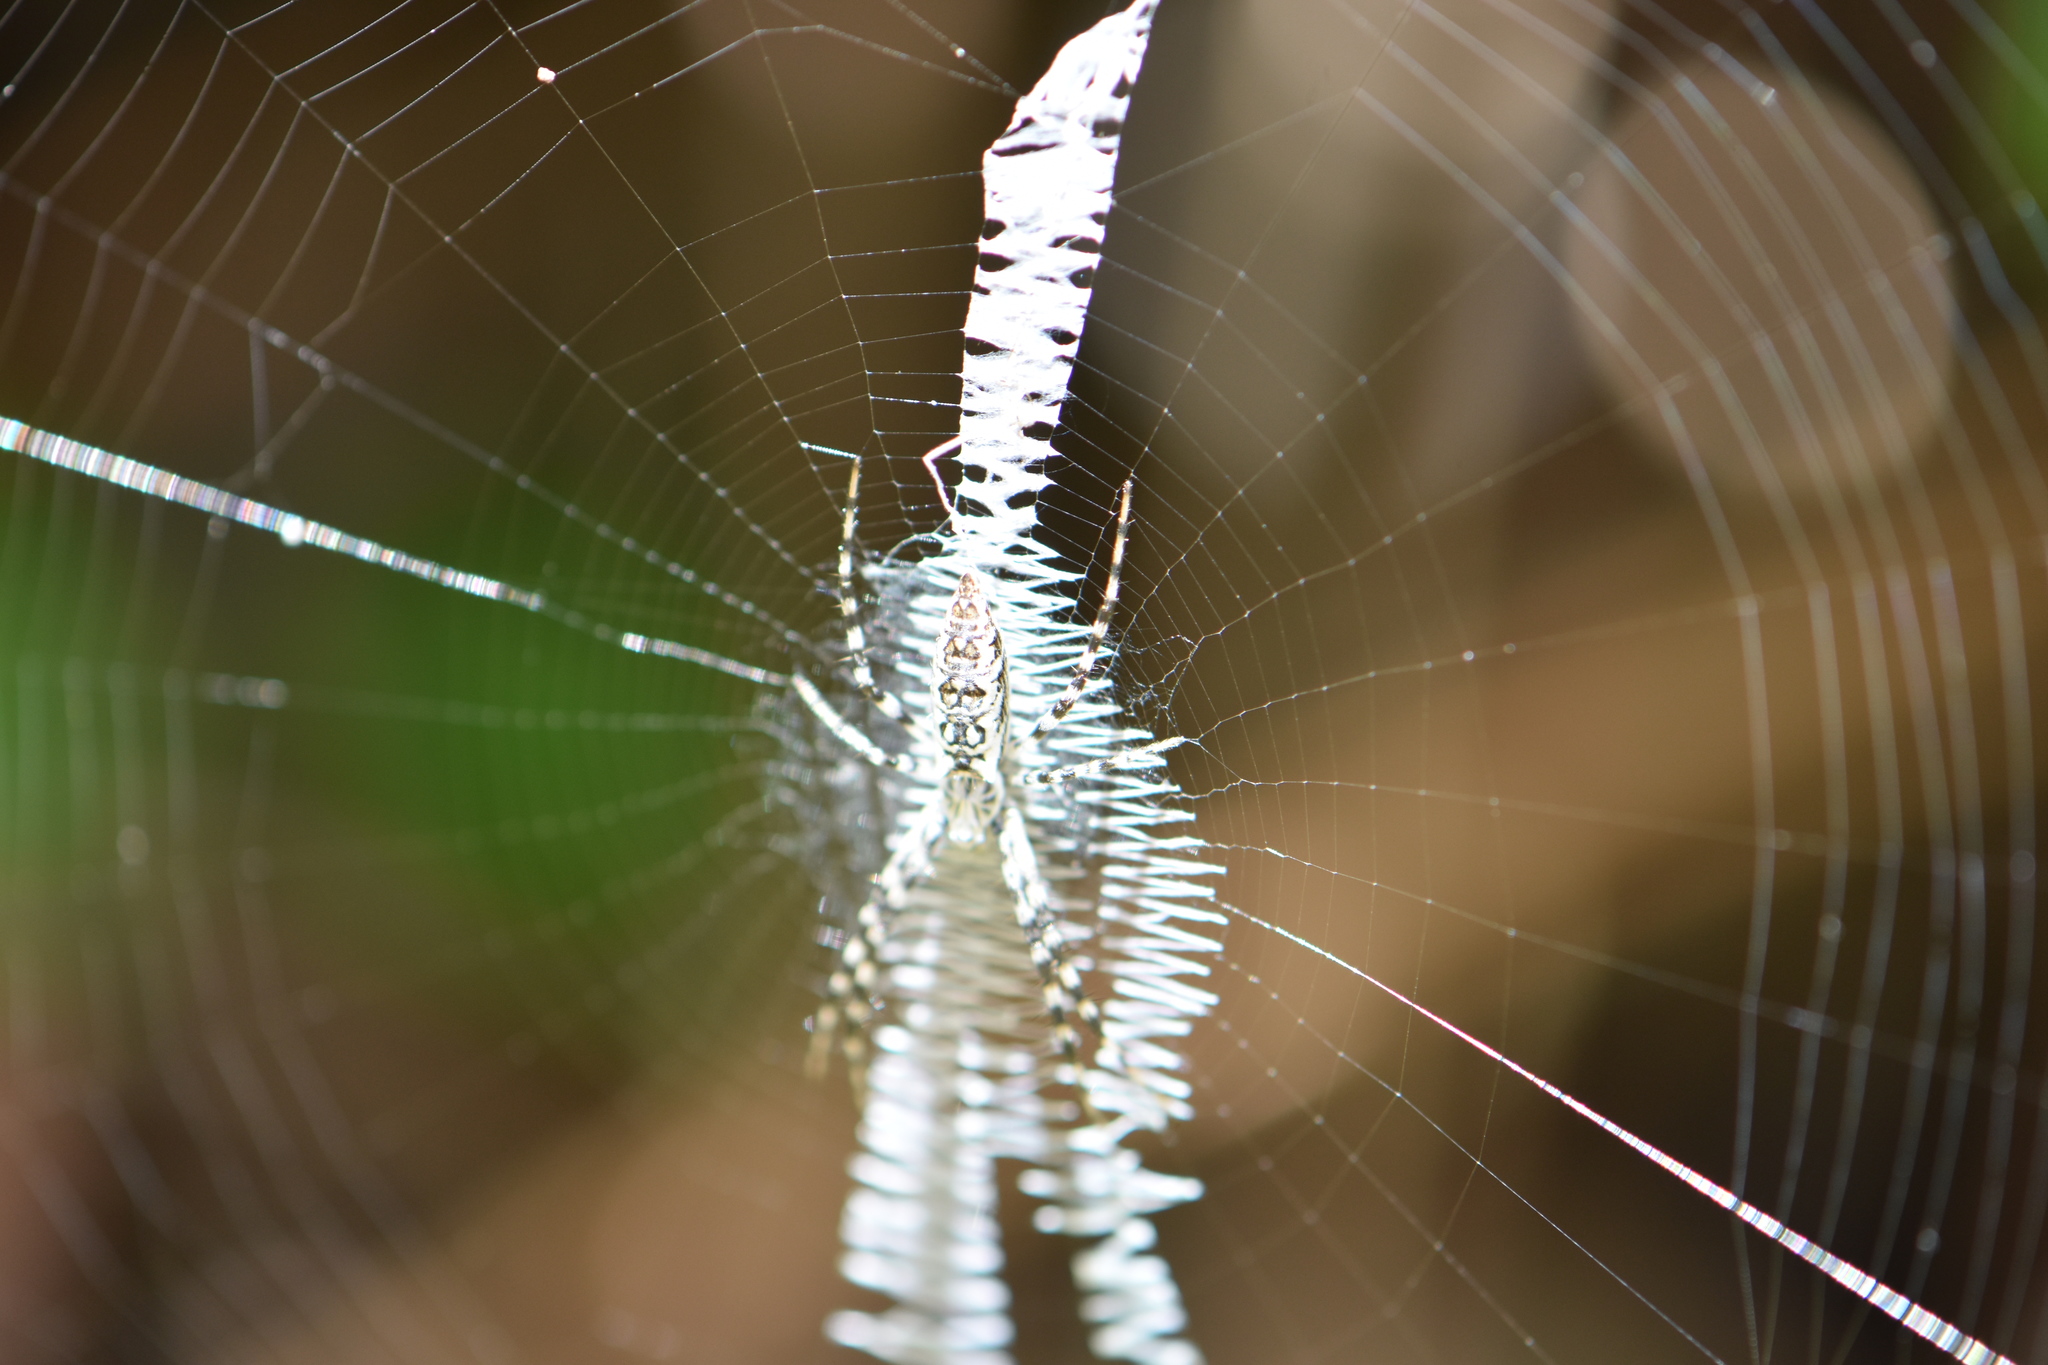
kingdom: Animalia
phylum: Arthropoda
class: Arachnida
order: Araneae
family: Araneidae
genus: Argiope
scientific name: Argiope aurantia
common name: Orb weavers
